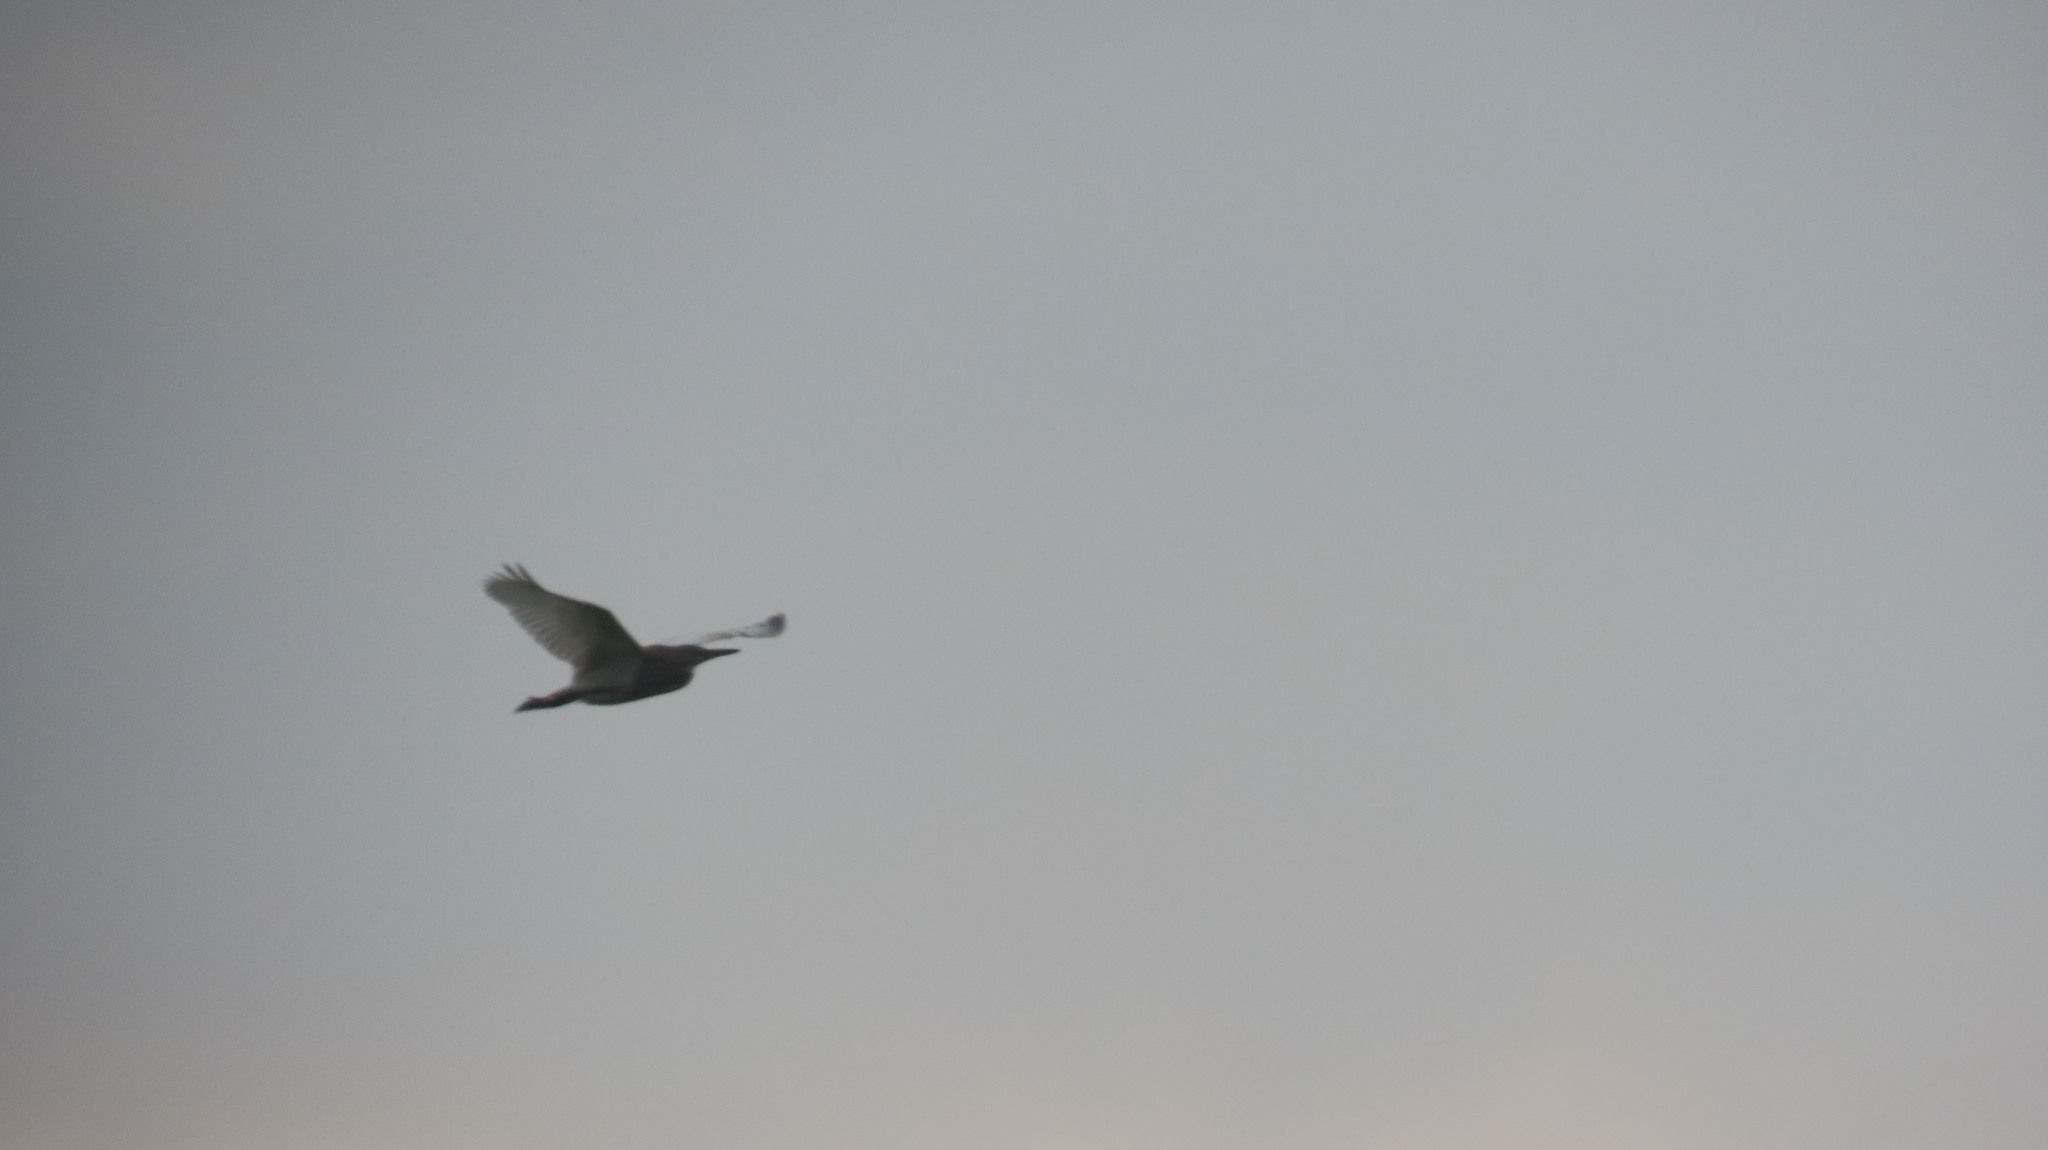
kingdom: Animalia
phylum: Chordata
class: Aves
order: Pelecaniformes
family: Ardeidae
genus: Ardeola
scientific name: Ardeola grayii
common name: Indian pond heron
